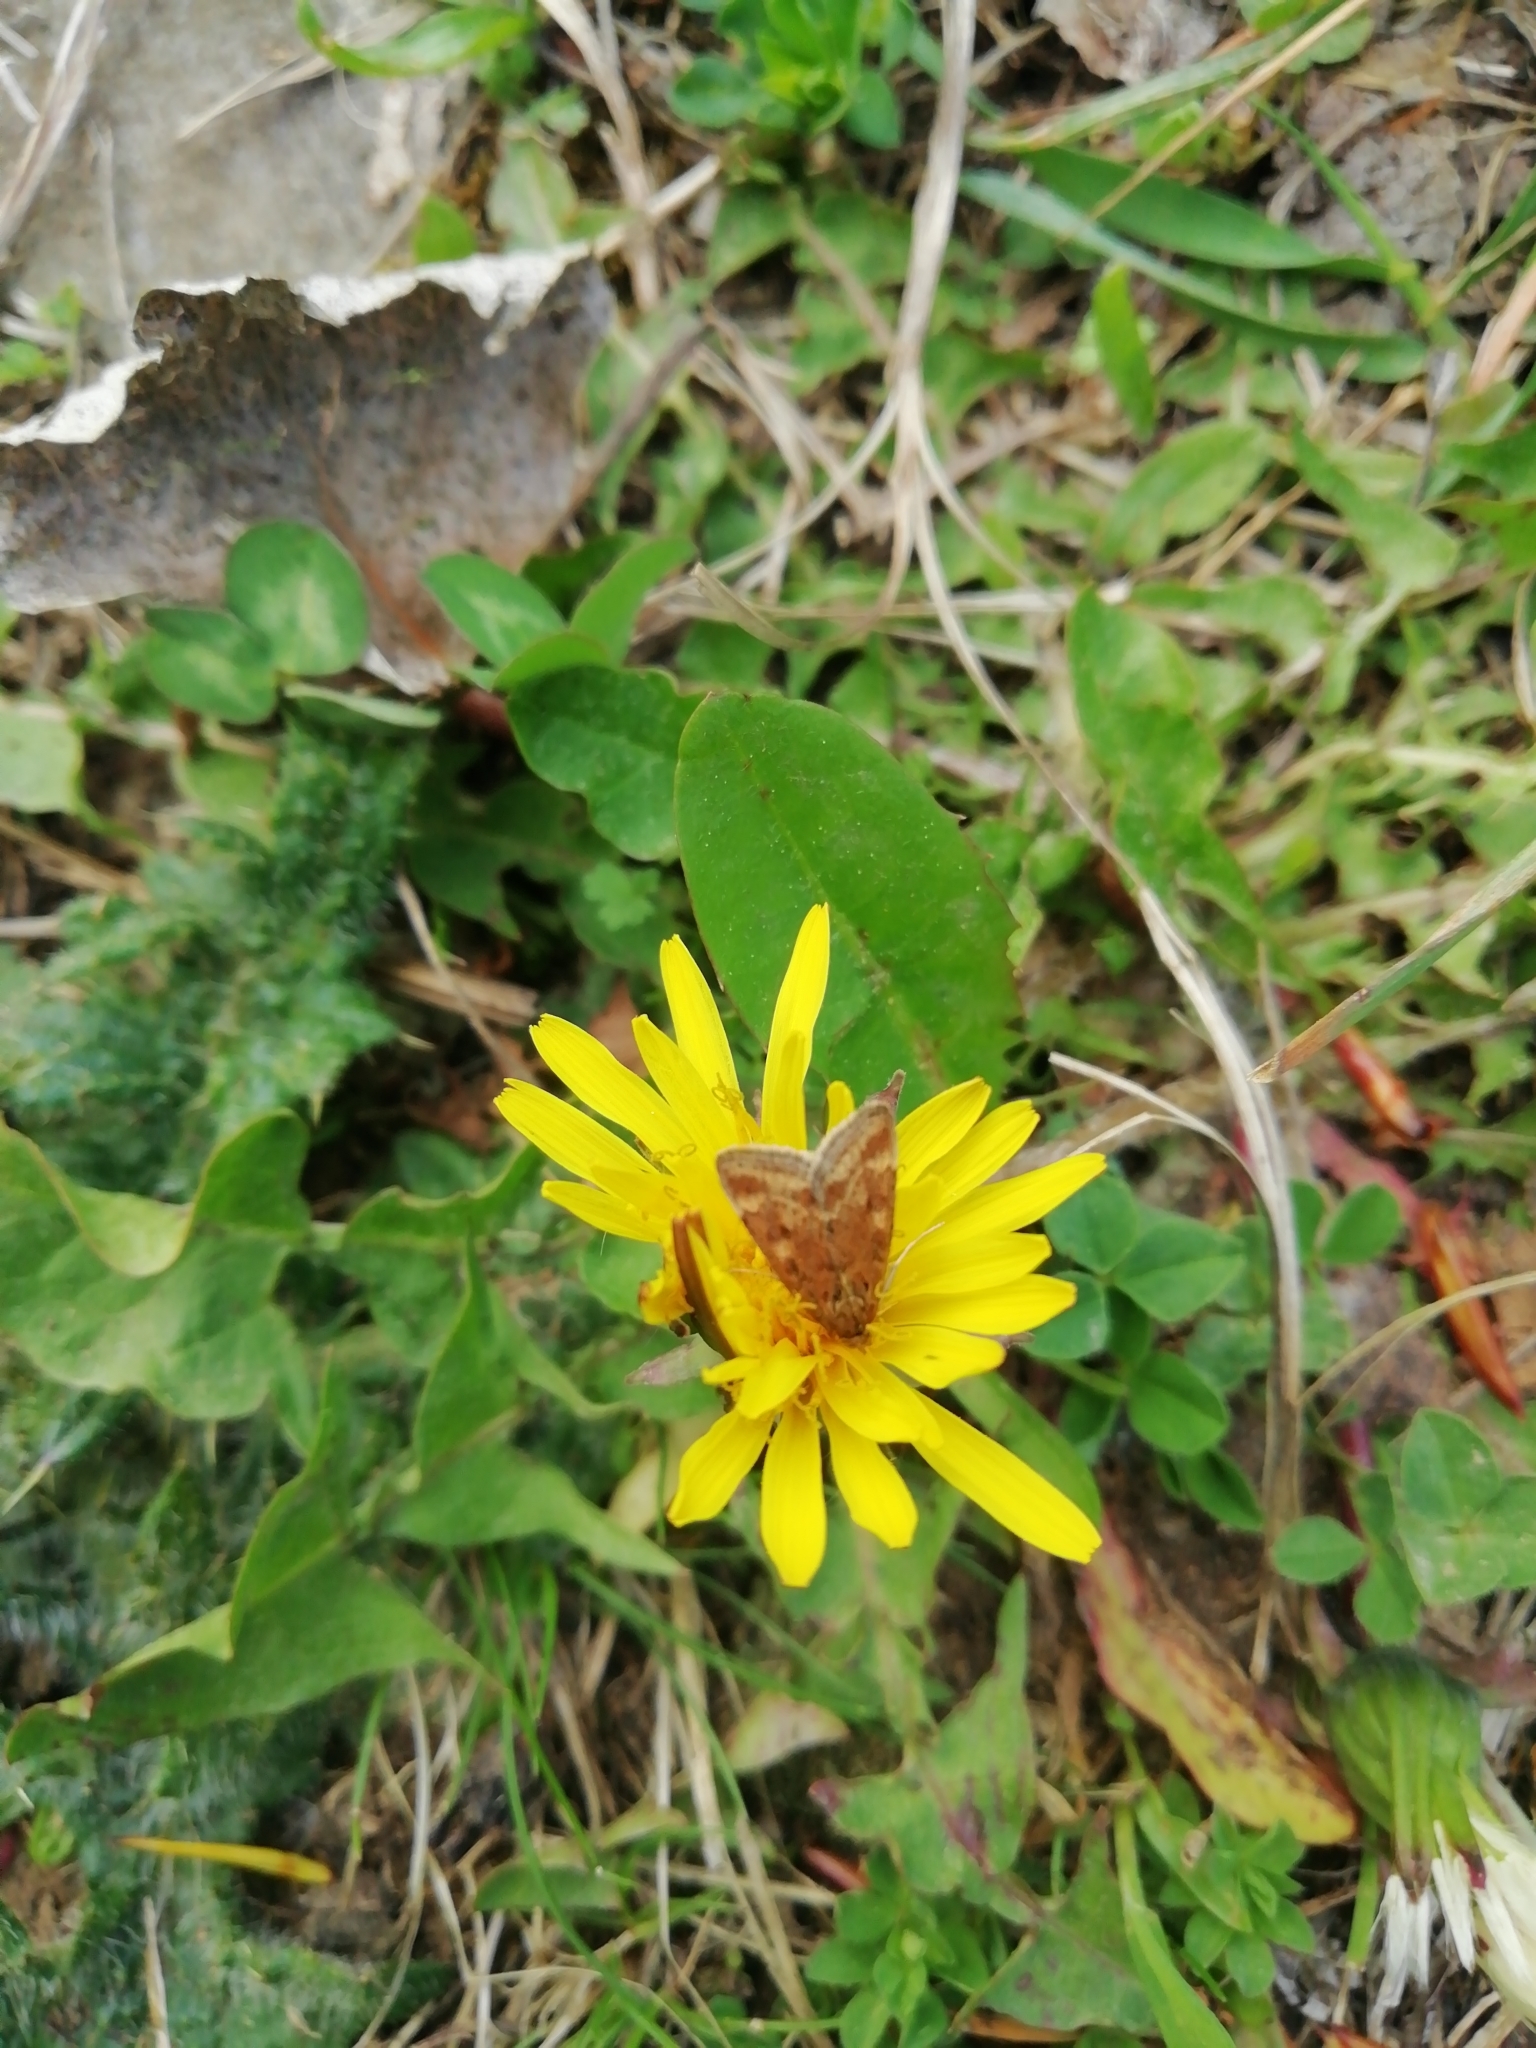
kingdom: Animalia
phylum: Arthropoda
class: Insecta
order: Lepidoptera
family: Crambidae
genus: Pyrausta
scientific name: Pyrausta despicata
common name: Straw-barred pearl
